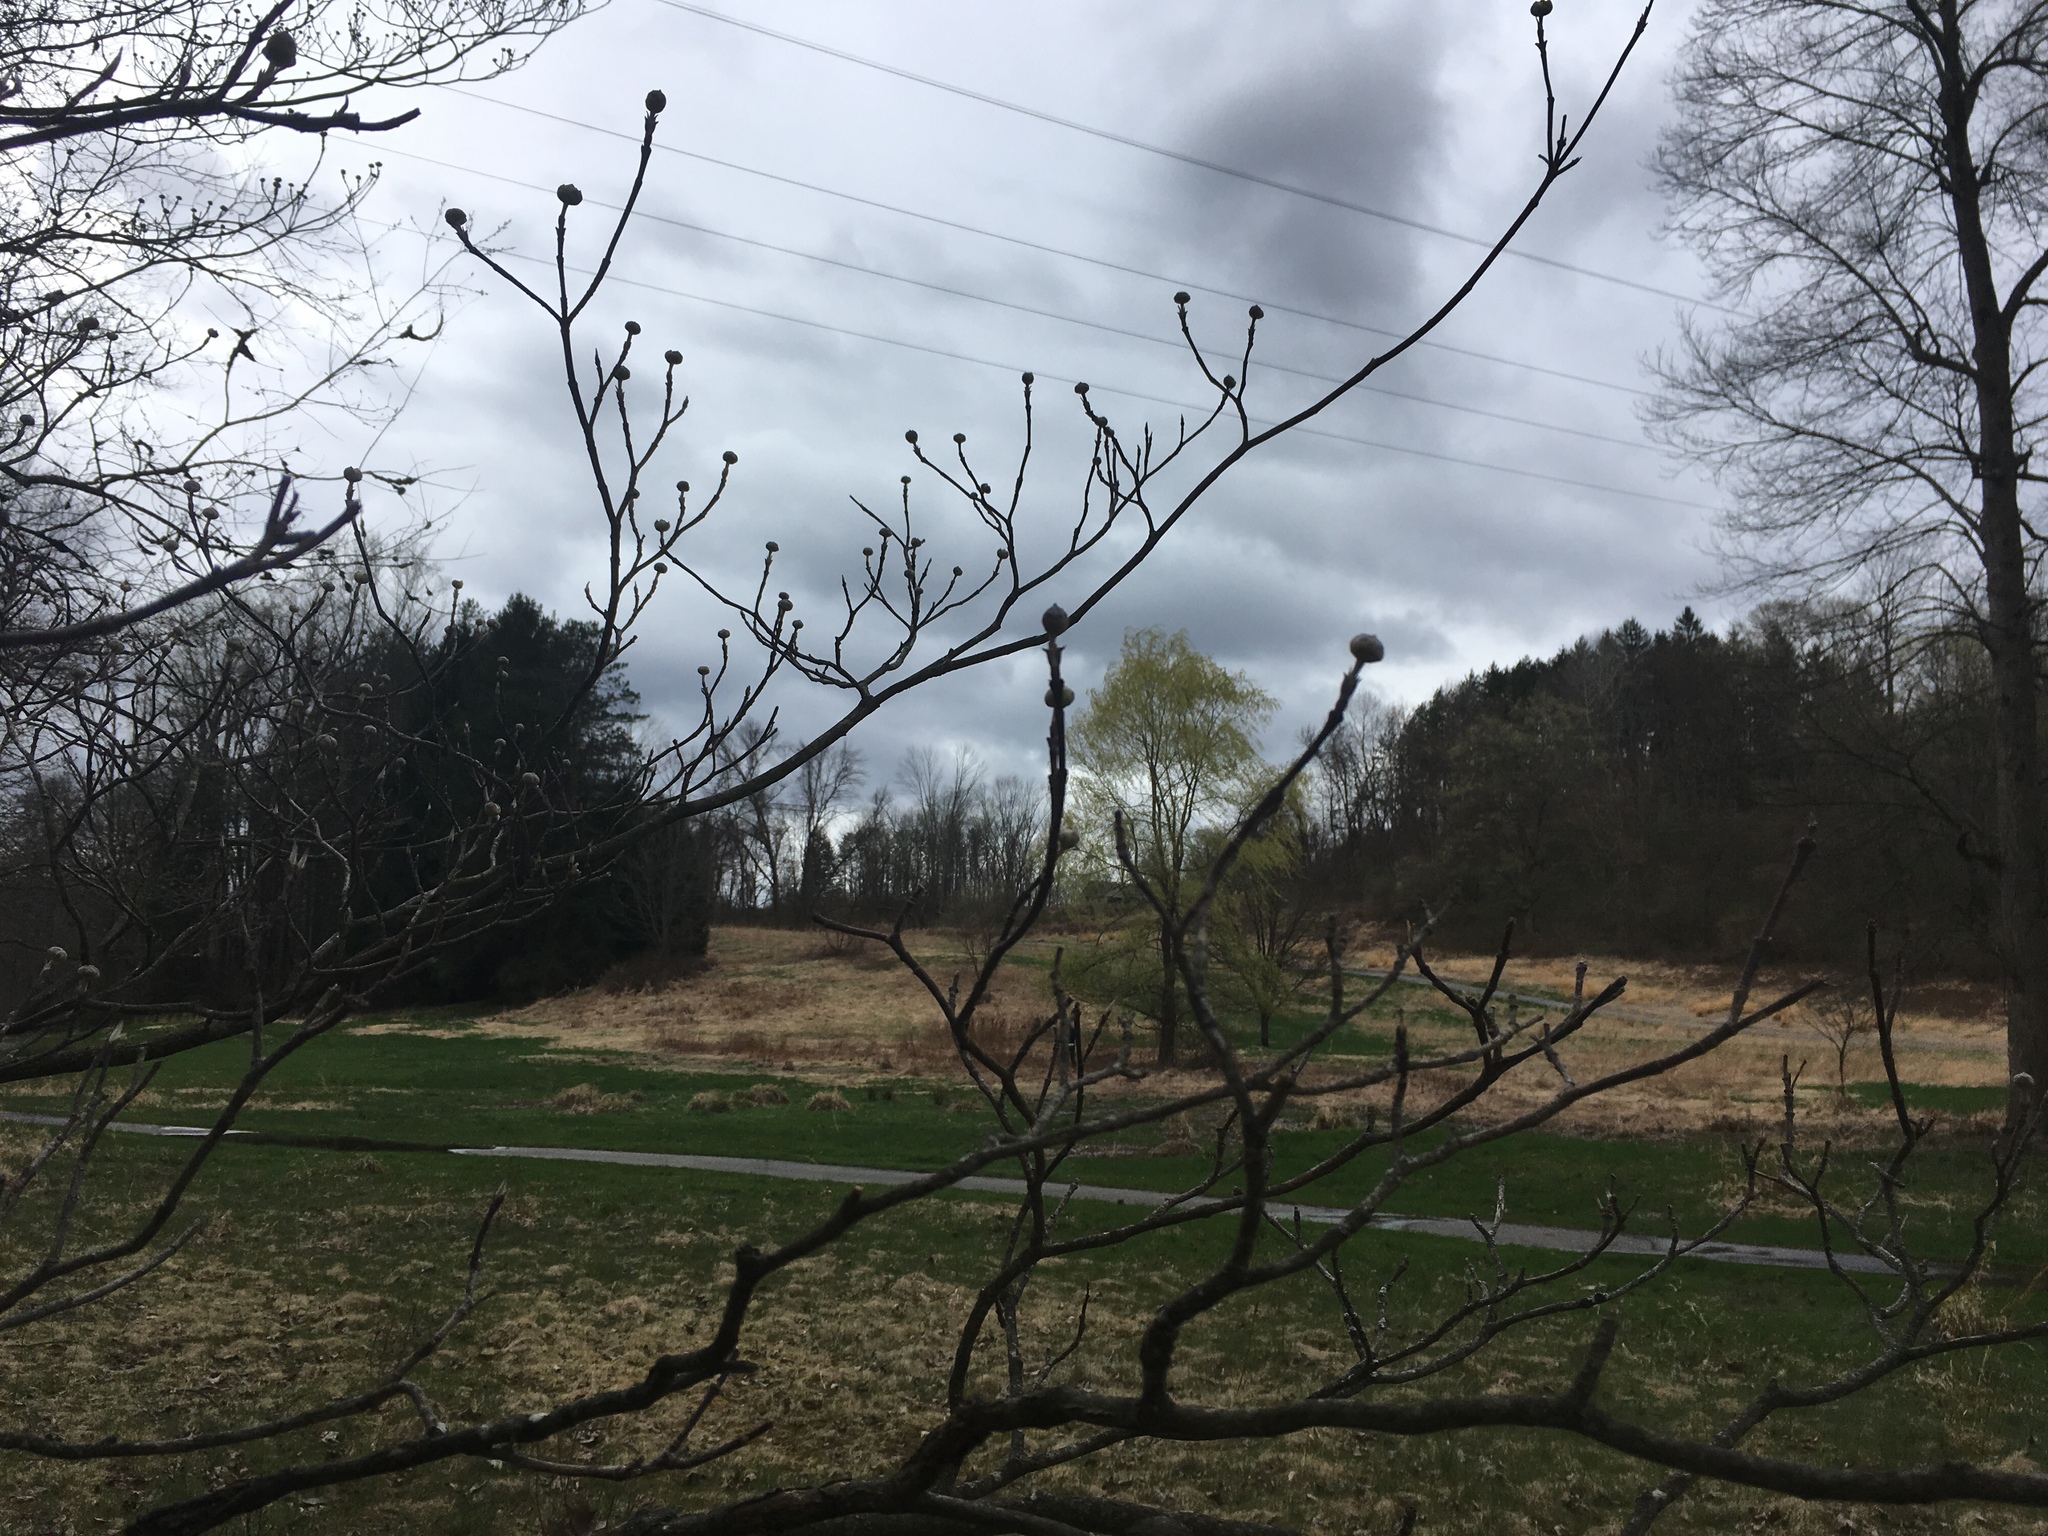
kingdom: Plantae
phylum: Tracheophyta
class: Magnoliopsida
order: Cornales
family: Cornaceae
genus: Cornus
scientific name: Cornus florida
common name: Flowering dogwood
